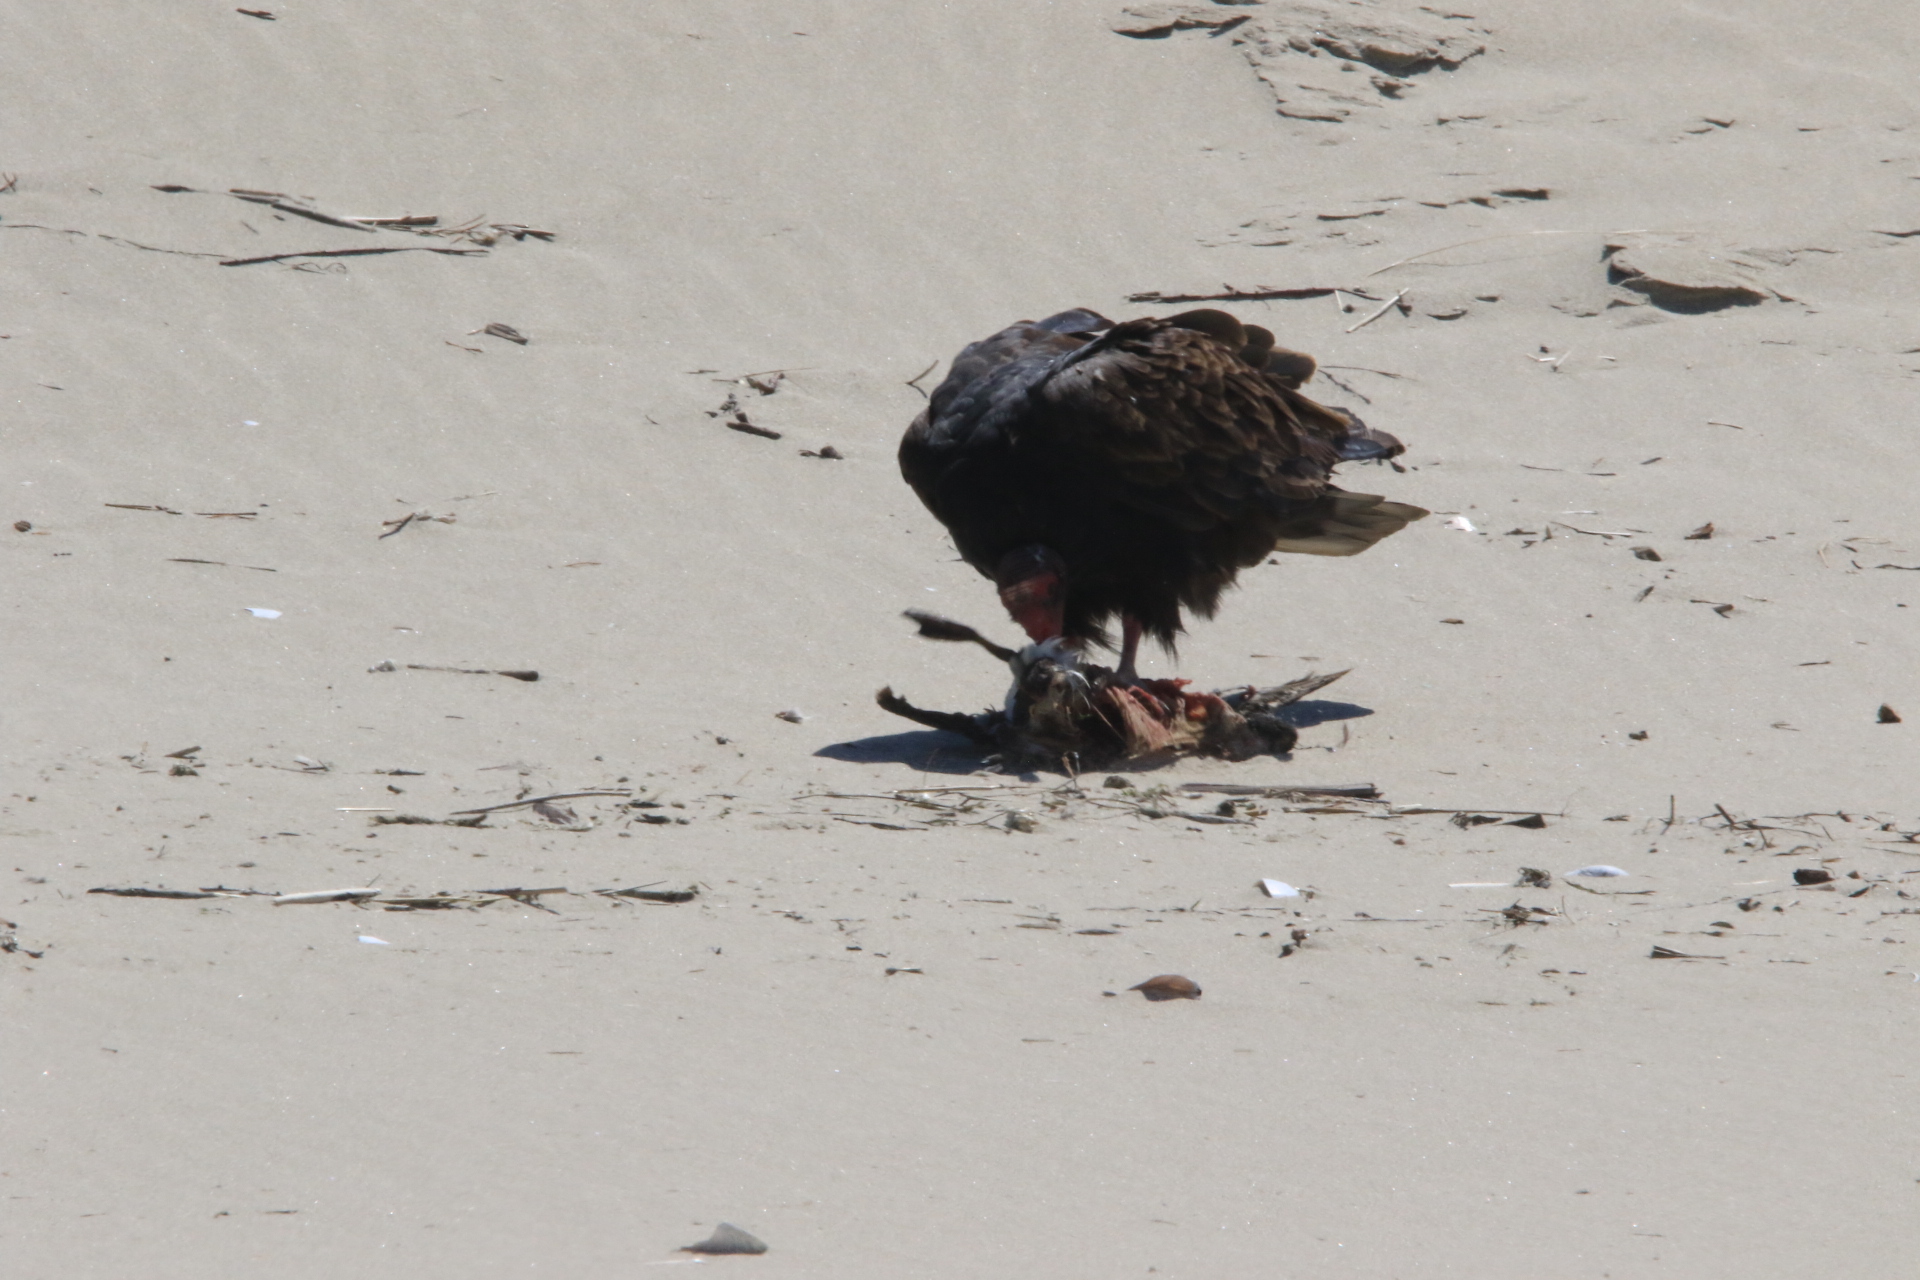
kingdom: Animalia
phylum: Chordata
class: Aves
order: Accipitriformes
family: Cathartidae
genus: Cathartes
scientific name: Cathartes aura
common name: Turkey vulture
